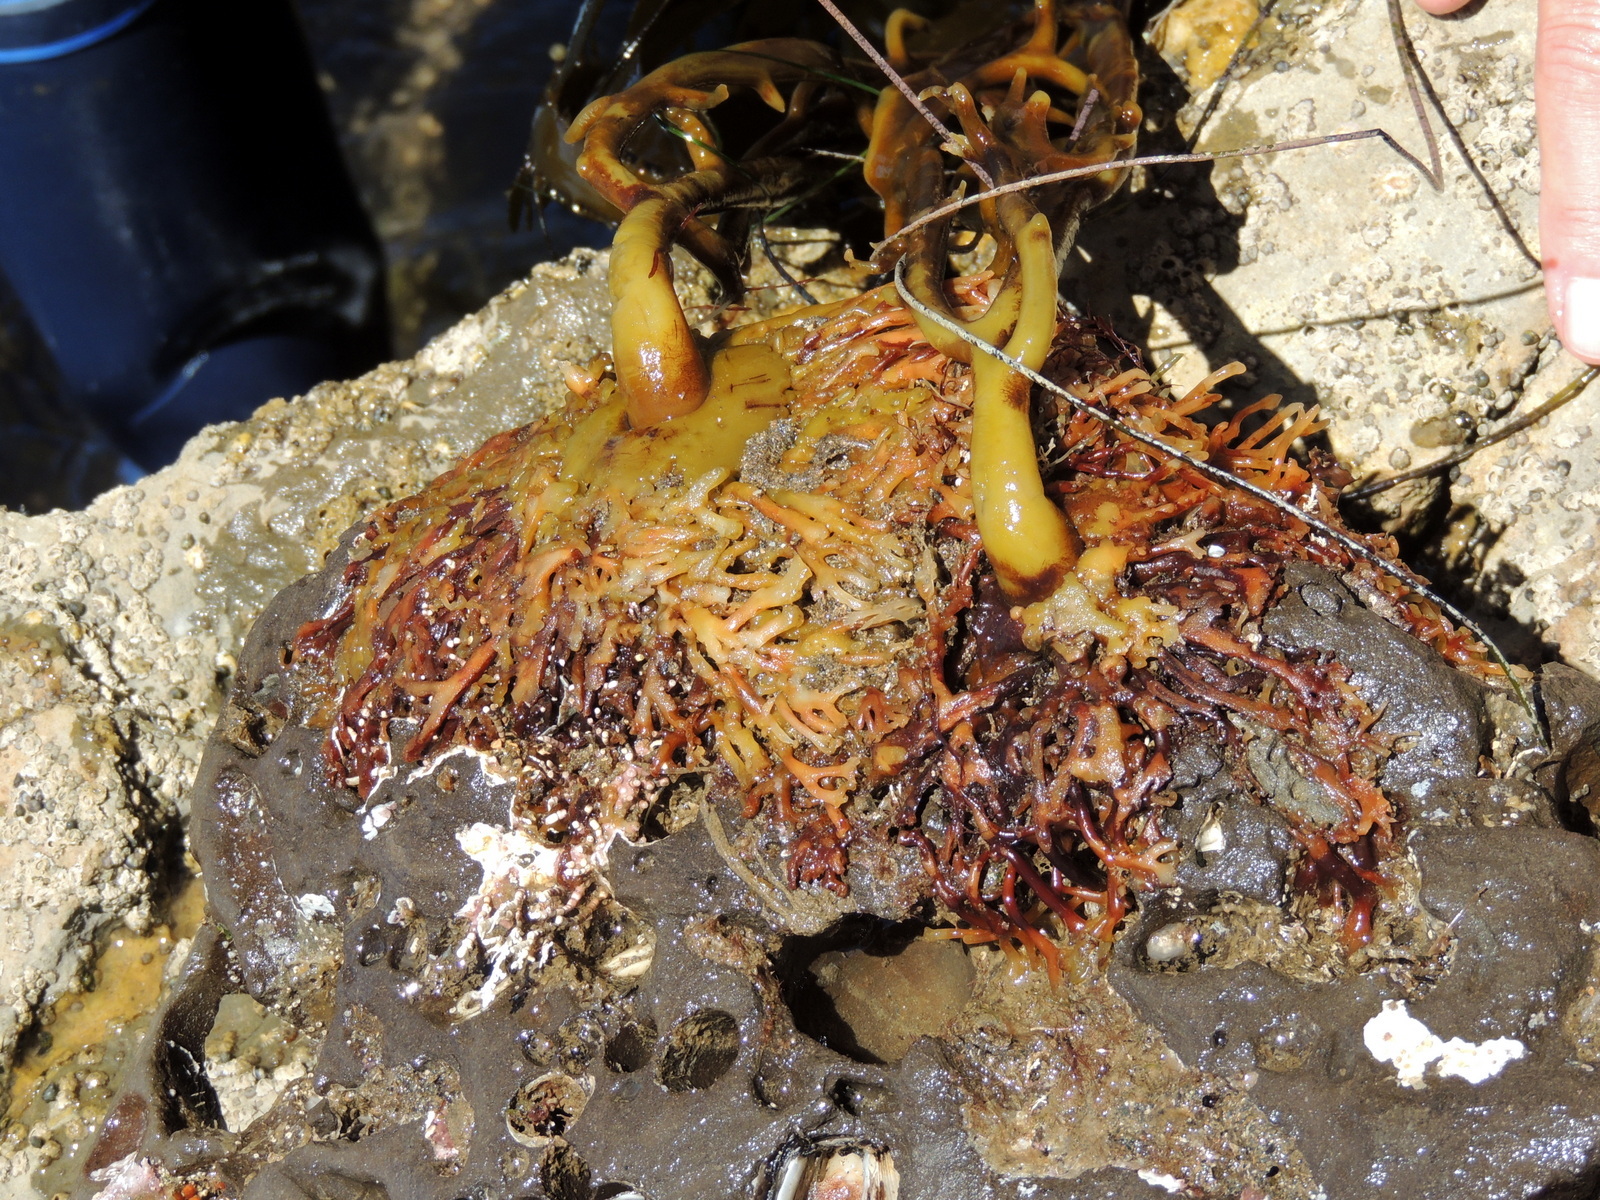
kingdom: Chromista
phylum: Ochrophyta
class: Phaeophyceae
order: Laminariales
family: Lessoniaceae
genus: Egregia
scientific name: Egregia menziesii
